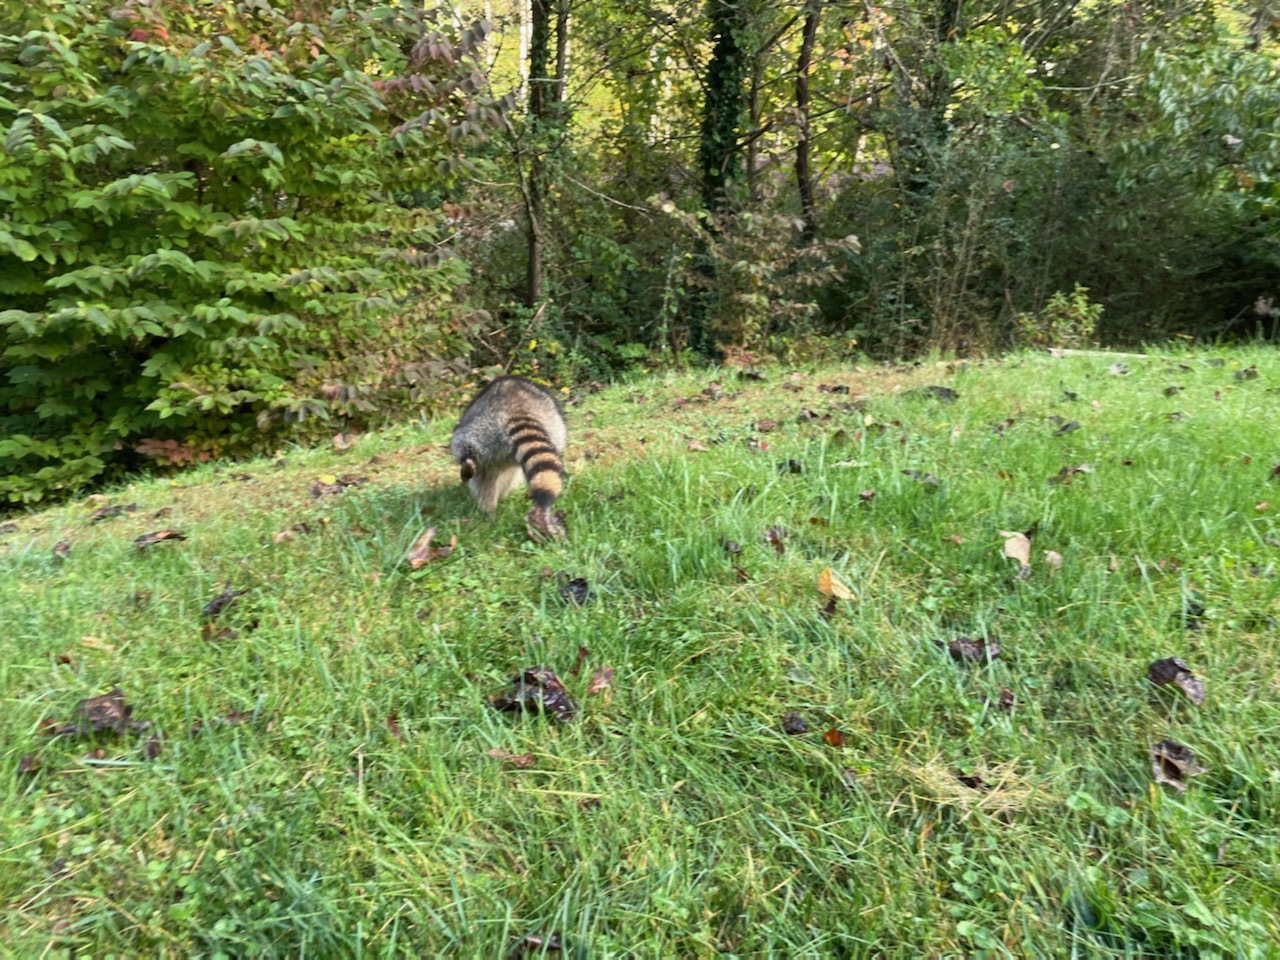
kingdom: Animalia
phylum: Chordata
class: Mammalia
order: Carnivora
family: Procyonidae
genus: Procyon
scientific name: Procyon lotor
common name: Raccoon
